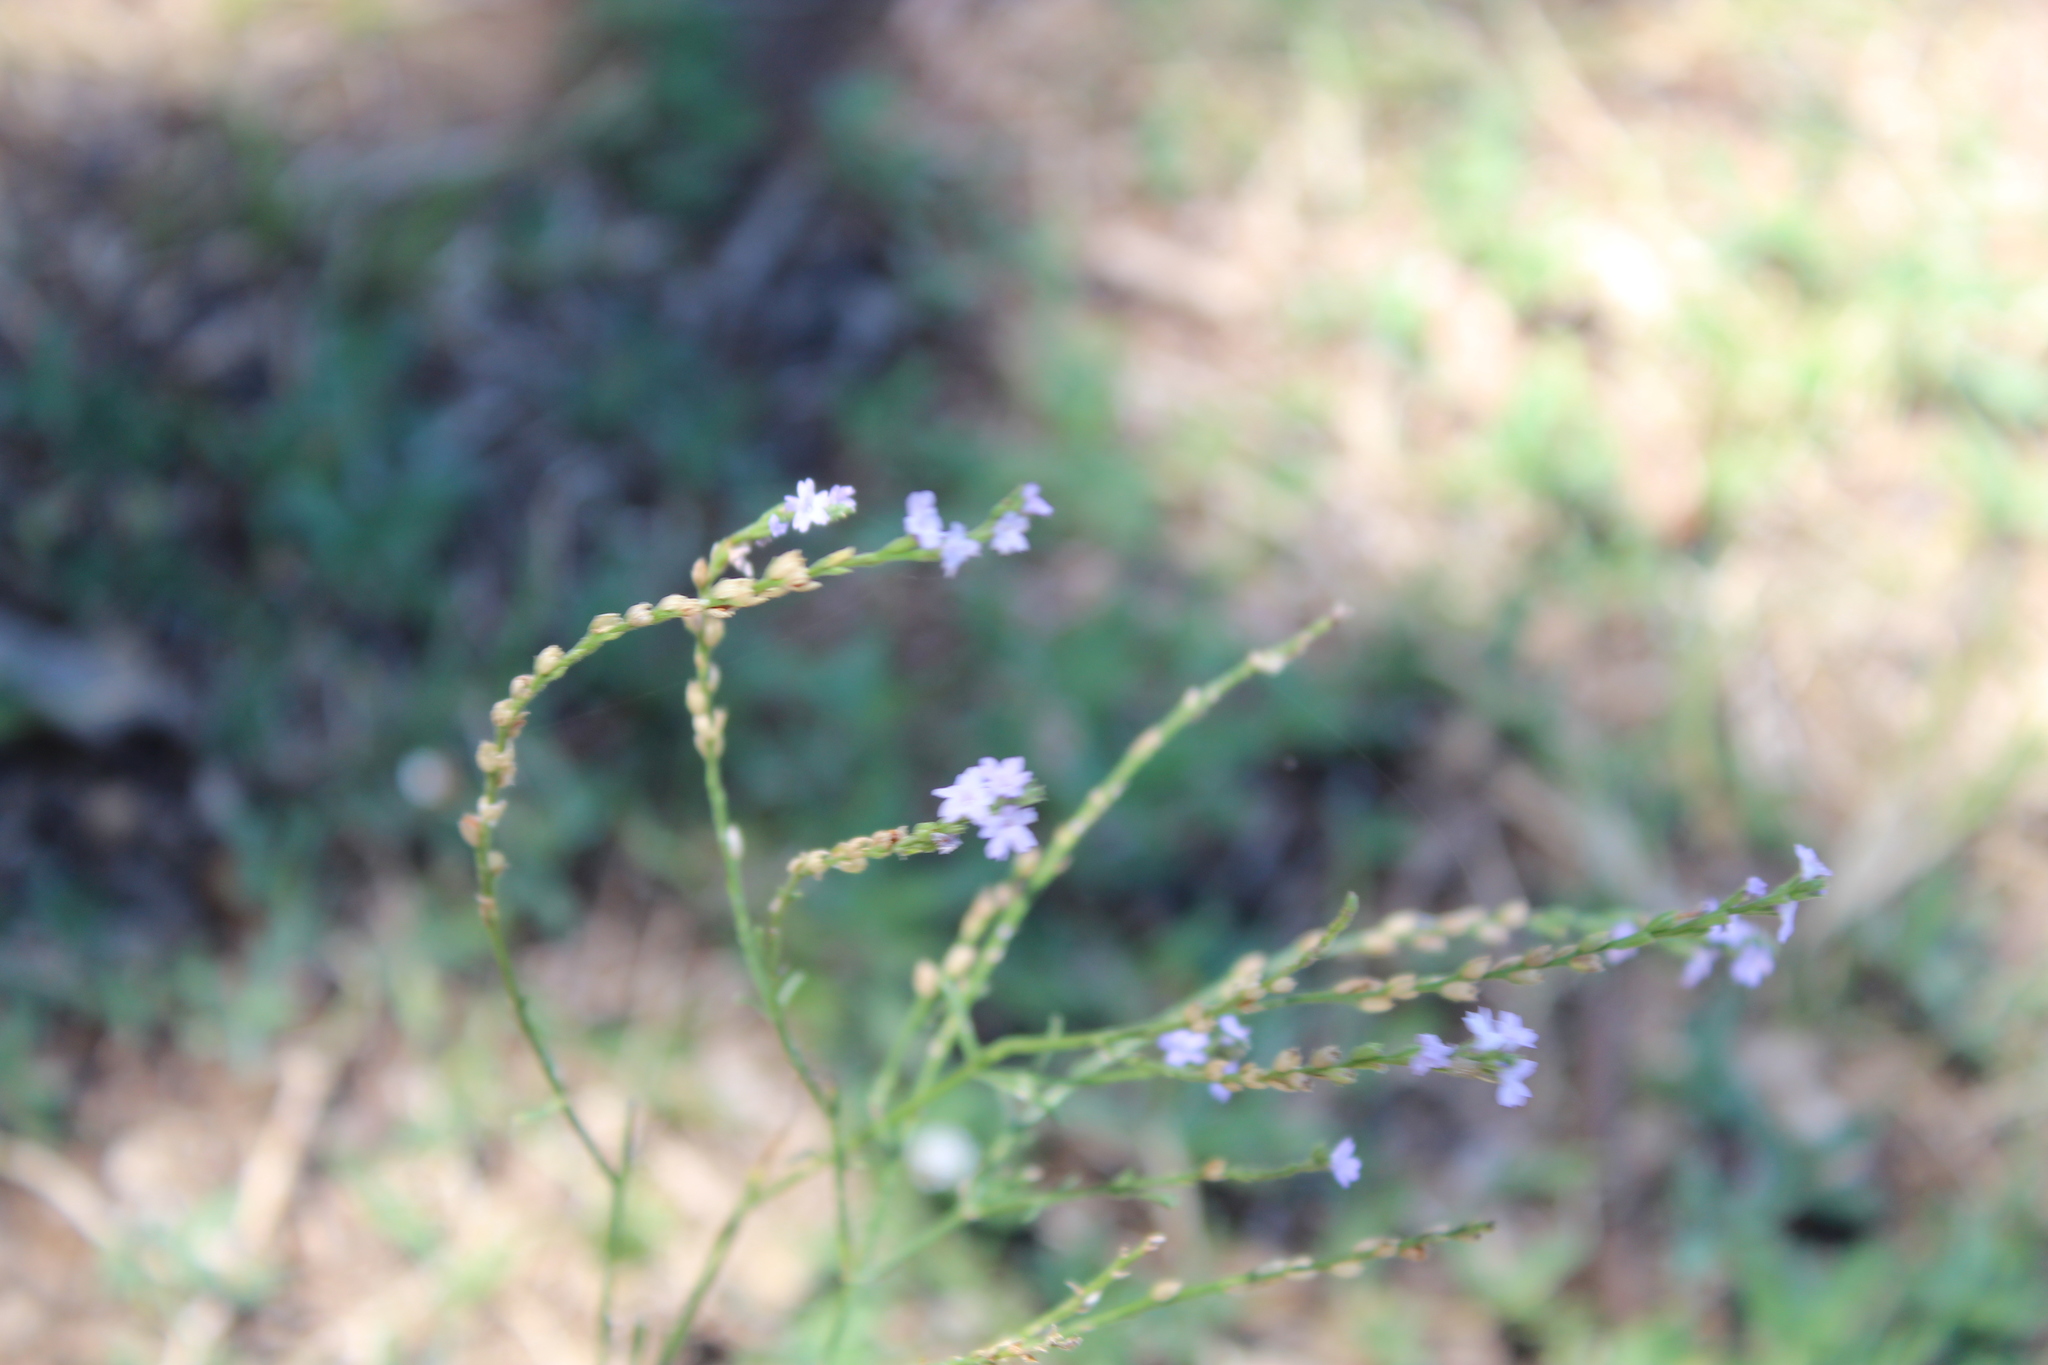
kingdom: Plantae
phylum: Tracheophyta
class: Magnoliopsida
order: Lamiales
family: Verbenaceae
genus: Verbena
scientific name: Verbena halei
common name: Texas vervain
